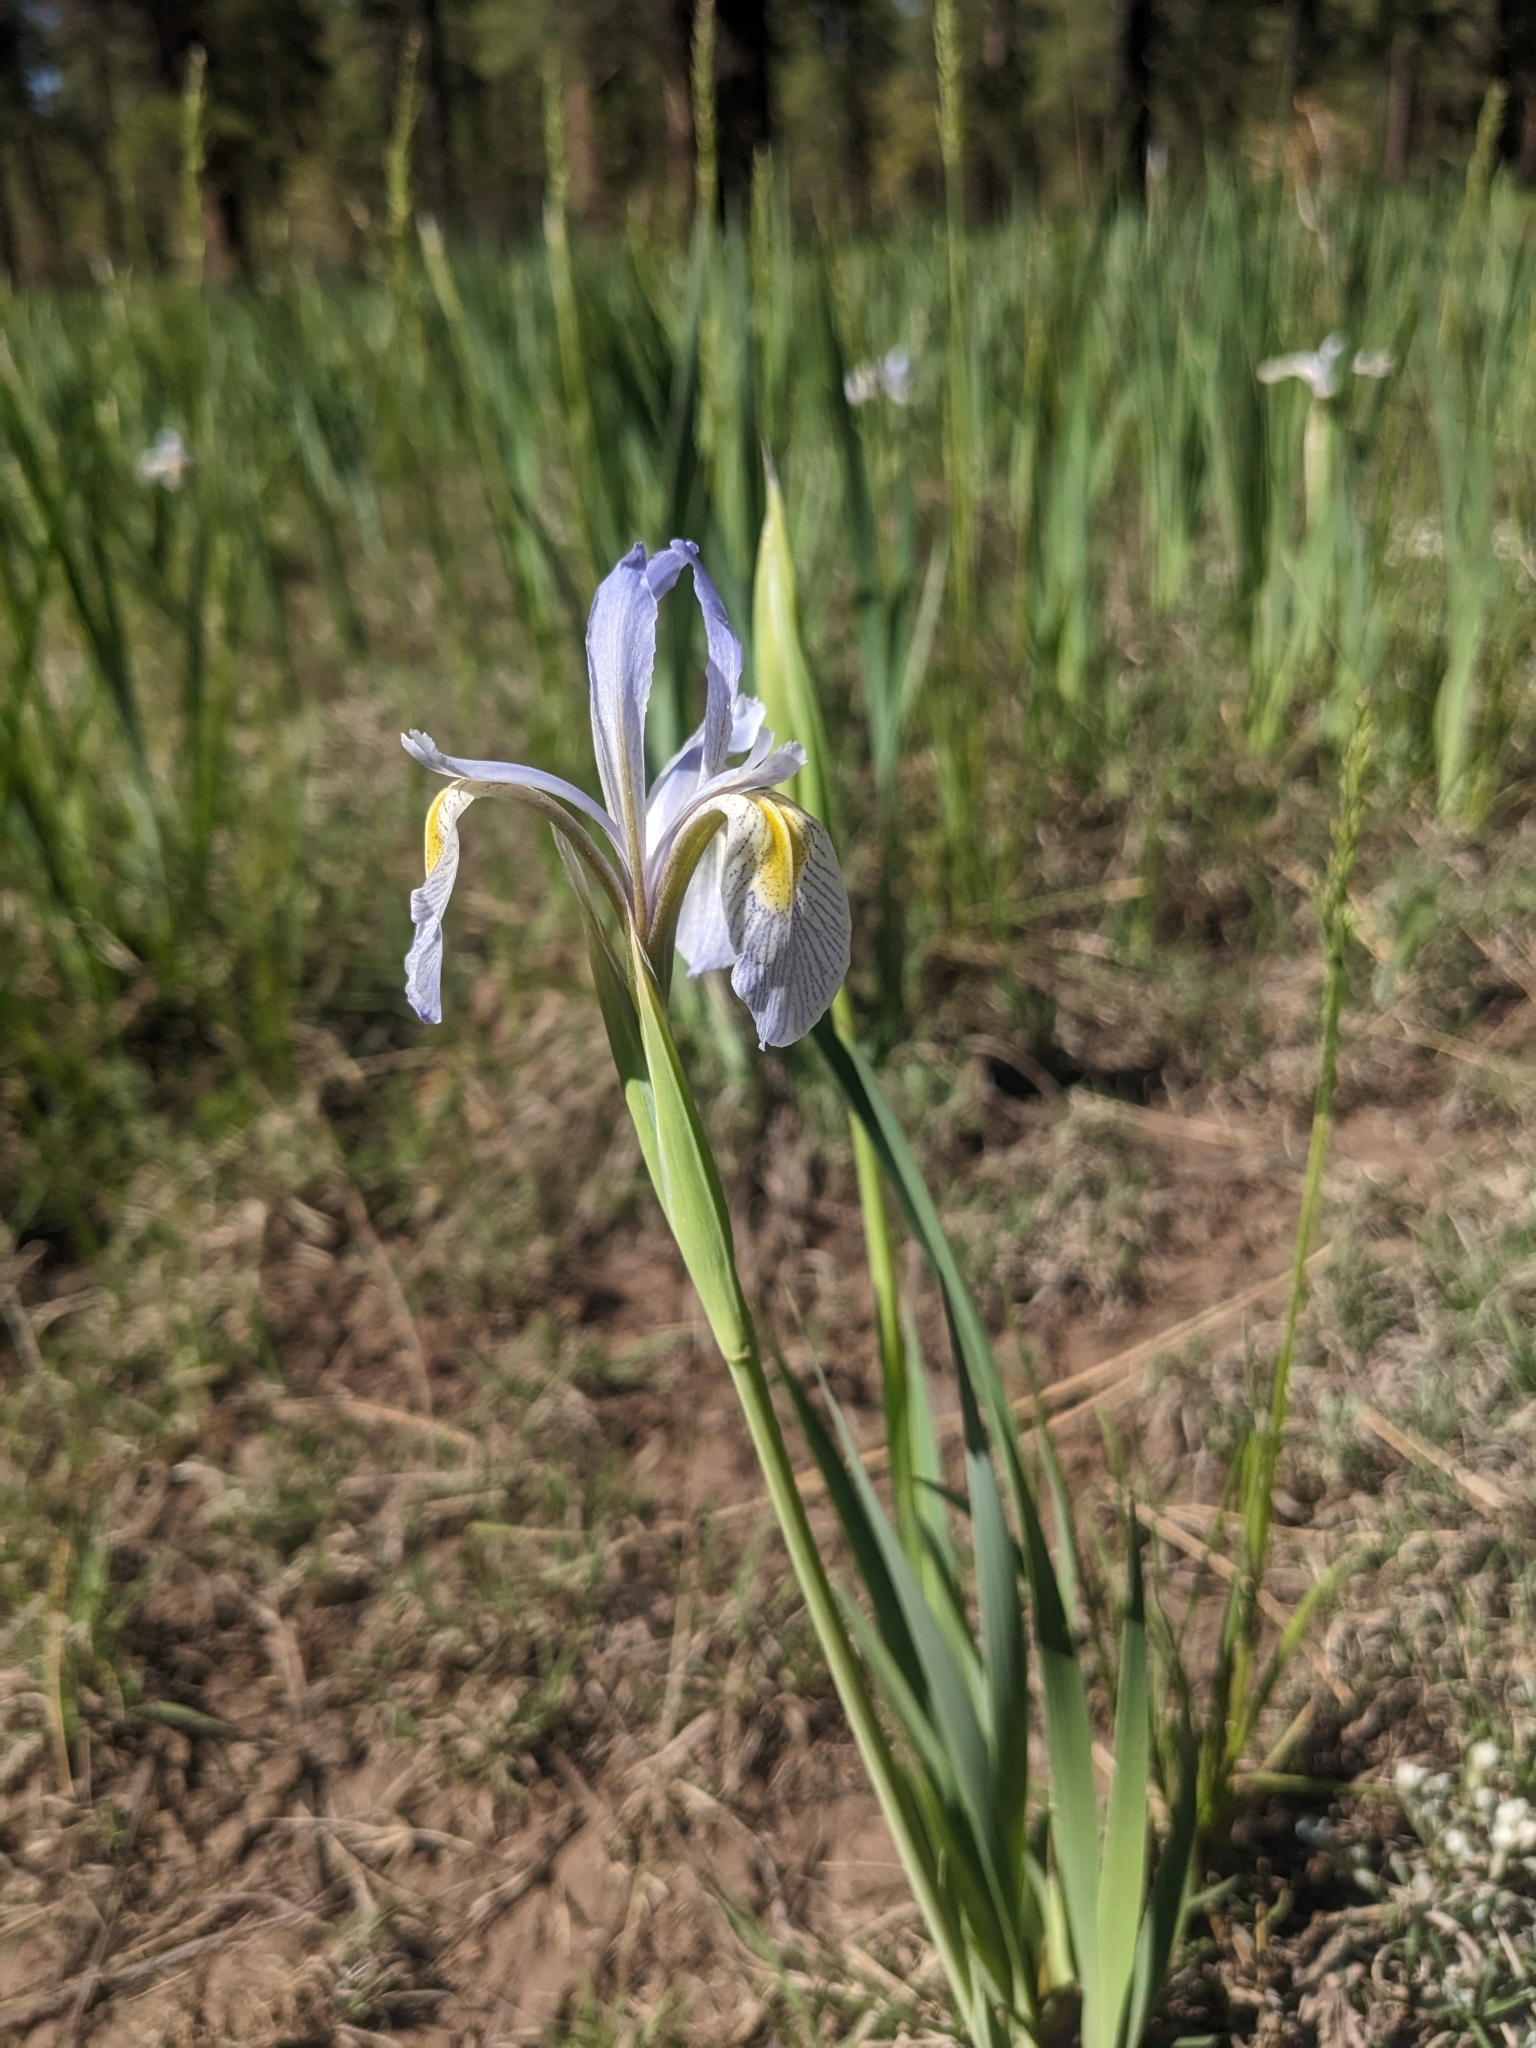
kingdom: Plantae
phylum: Tracheophyta
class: Liliopsida
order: Asparagales
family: Iridaceae
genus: Iris
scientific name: Iris missouriensis
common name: Rocky mountain iris
